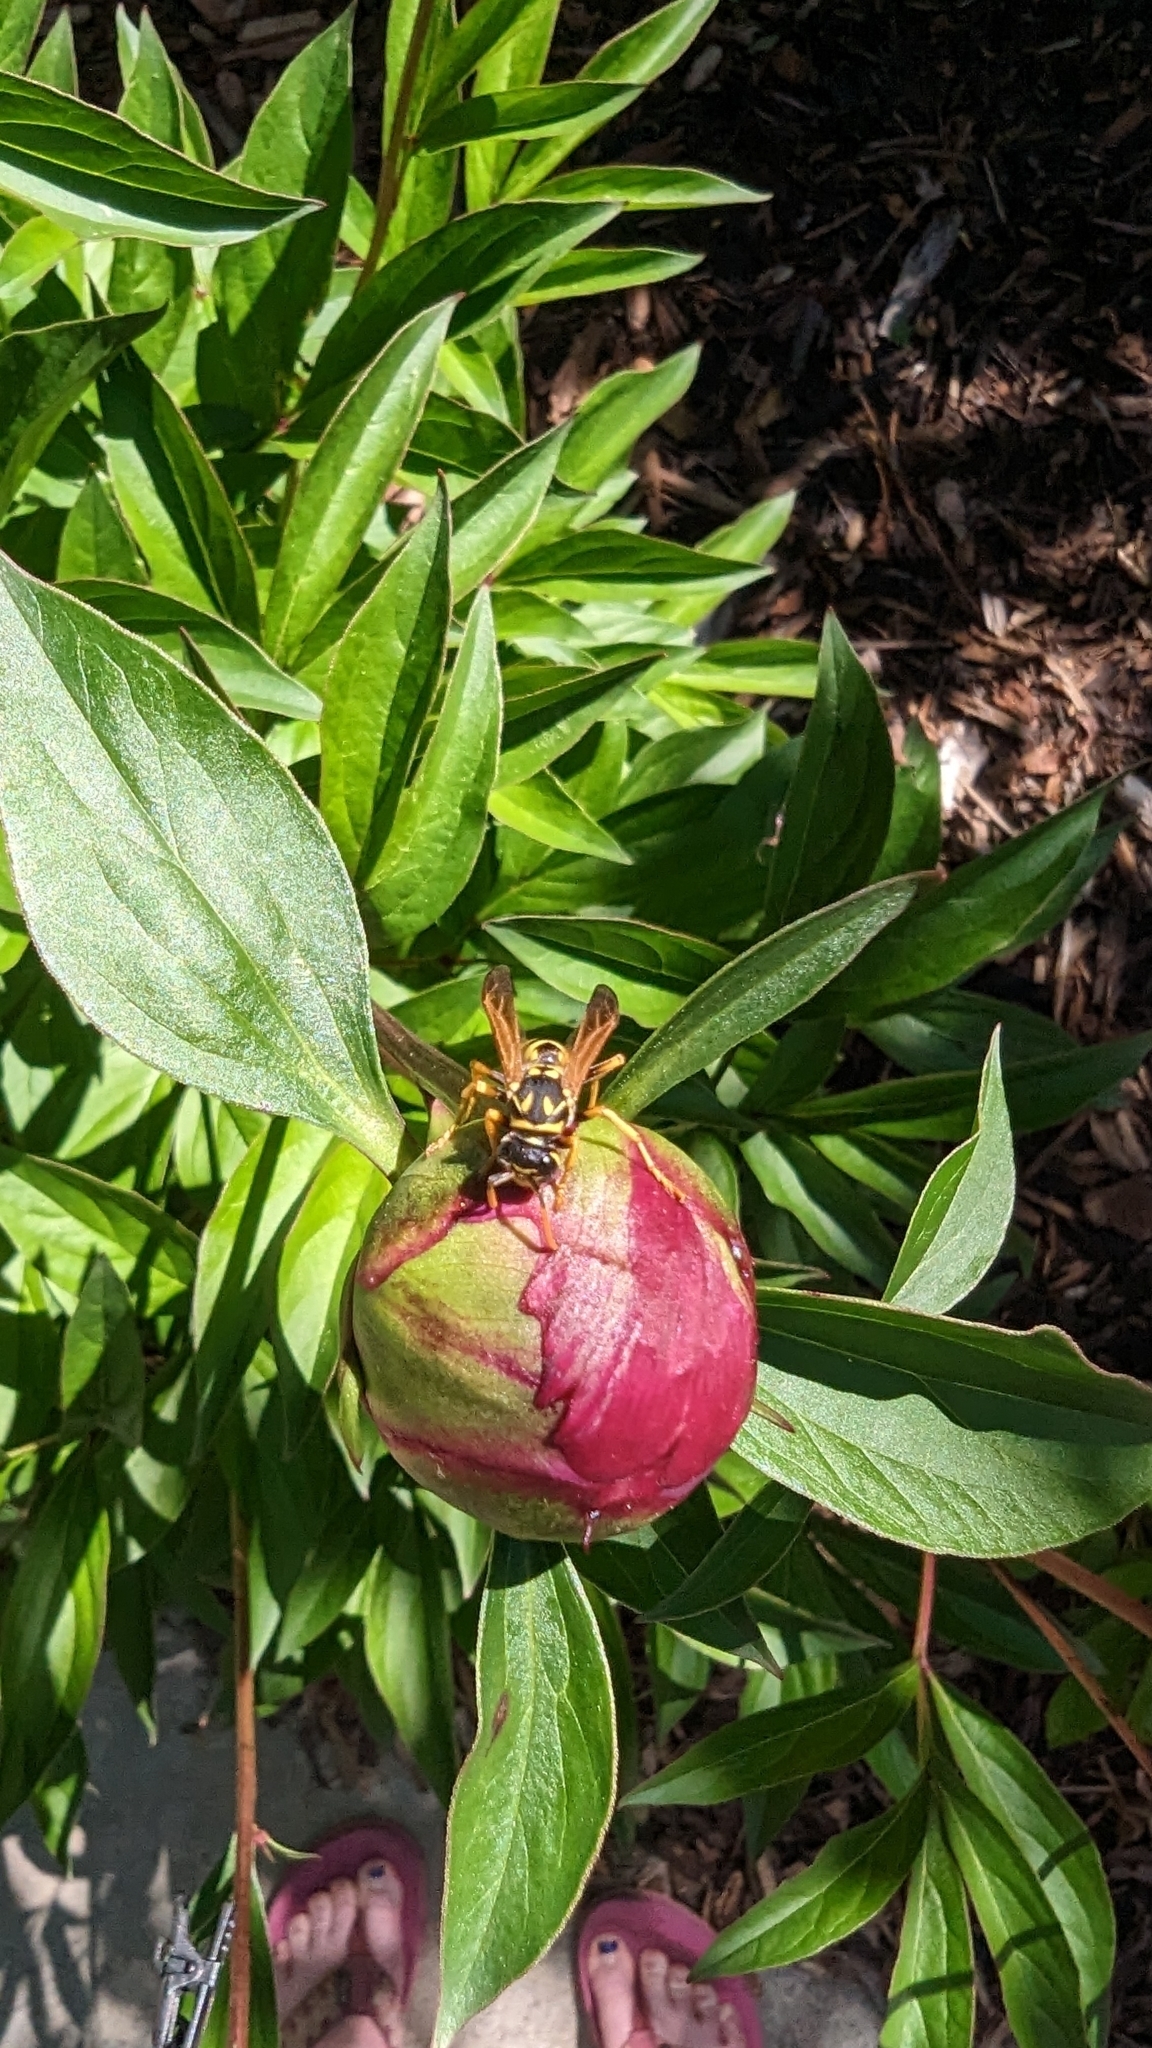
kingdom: Animalia
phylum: Arthropoda
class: Insecta
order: Hymenoptera
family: Eumenidae
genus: Polistes
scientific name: Polistes dominula
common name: Paper wasp
